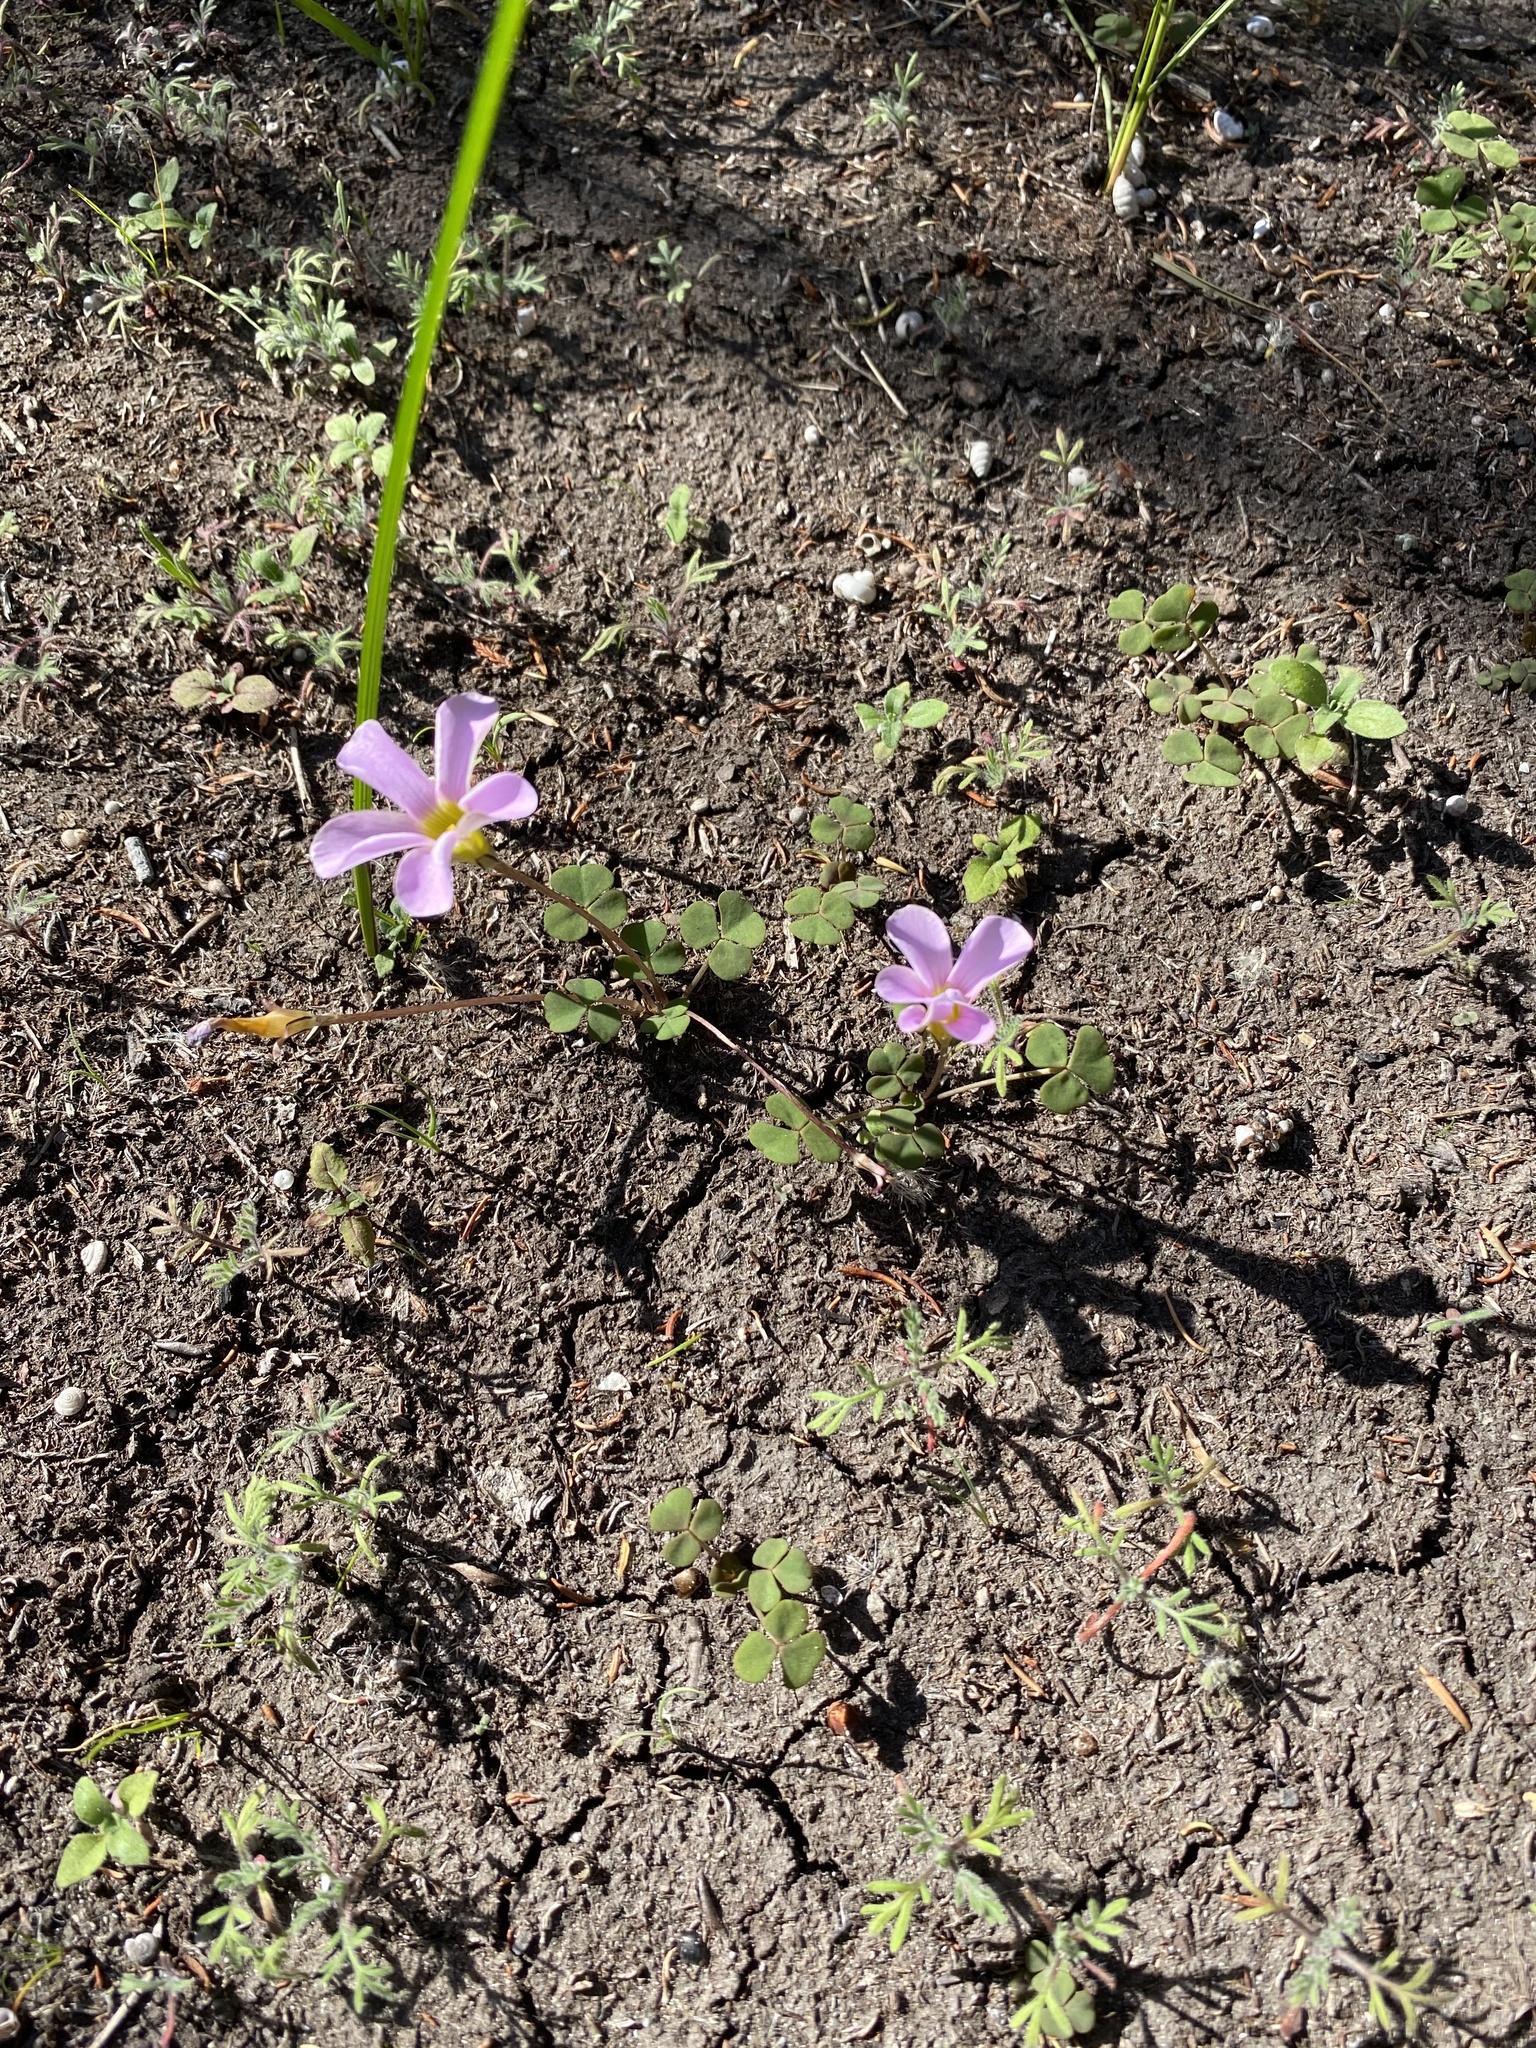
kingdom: Plantae
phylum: Tracheophyta
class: Magnoliopsida
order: Oxalidales
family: Oxalidaceae
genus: Oxalis
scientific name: Oxalis depressa
